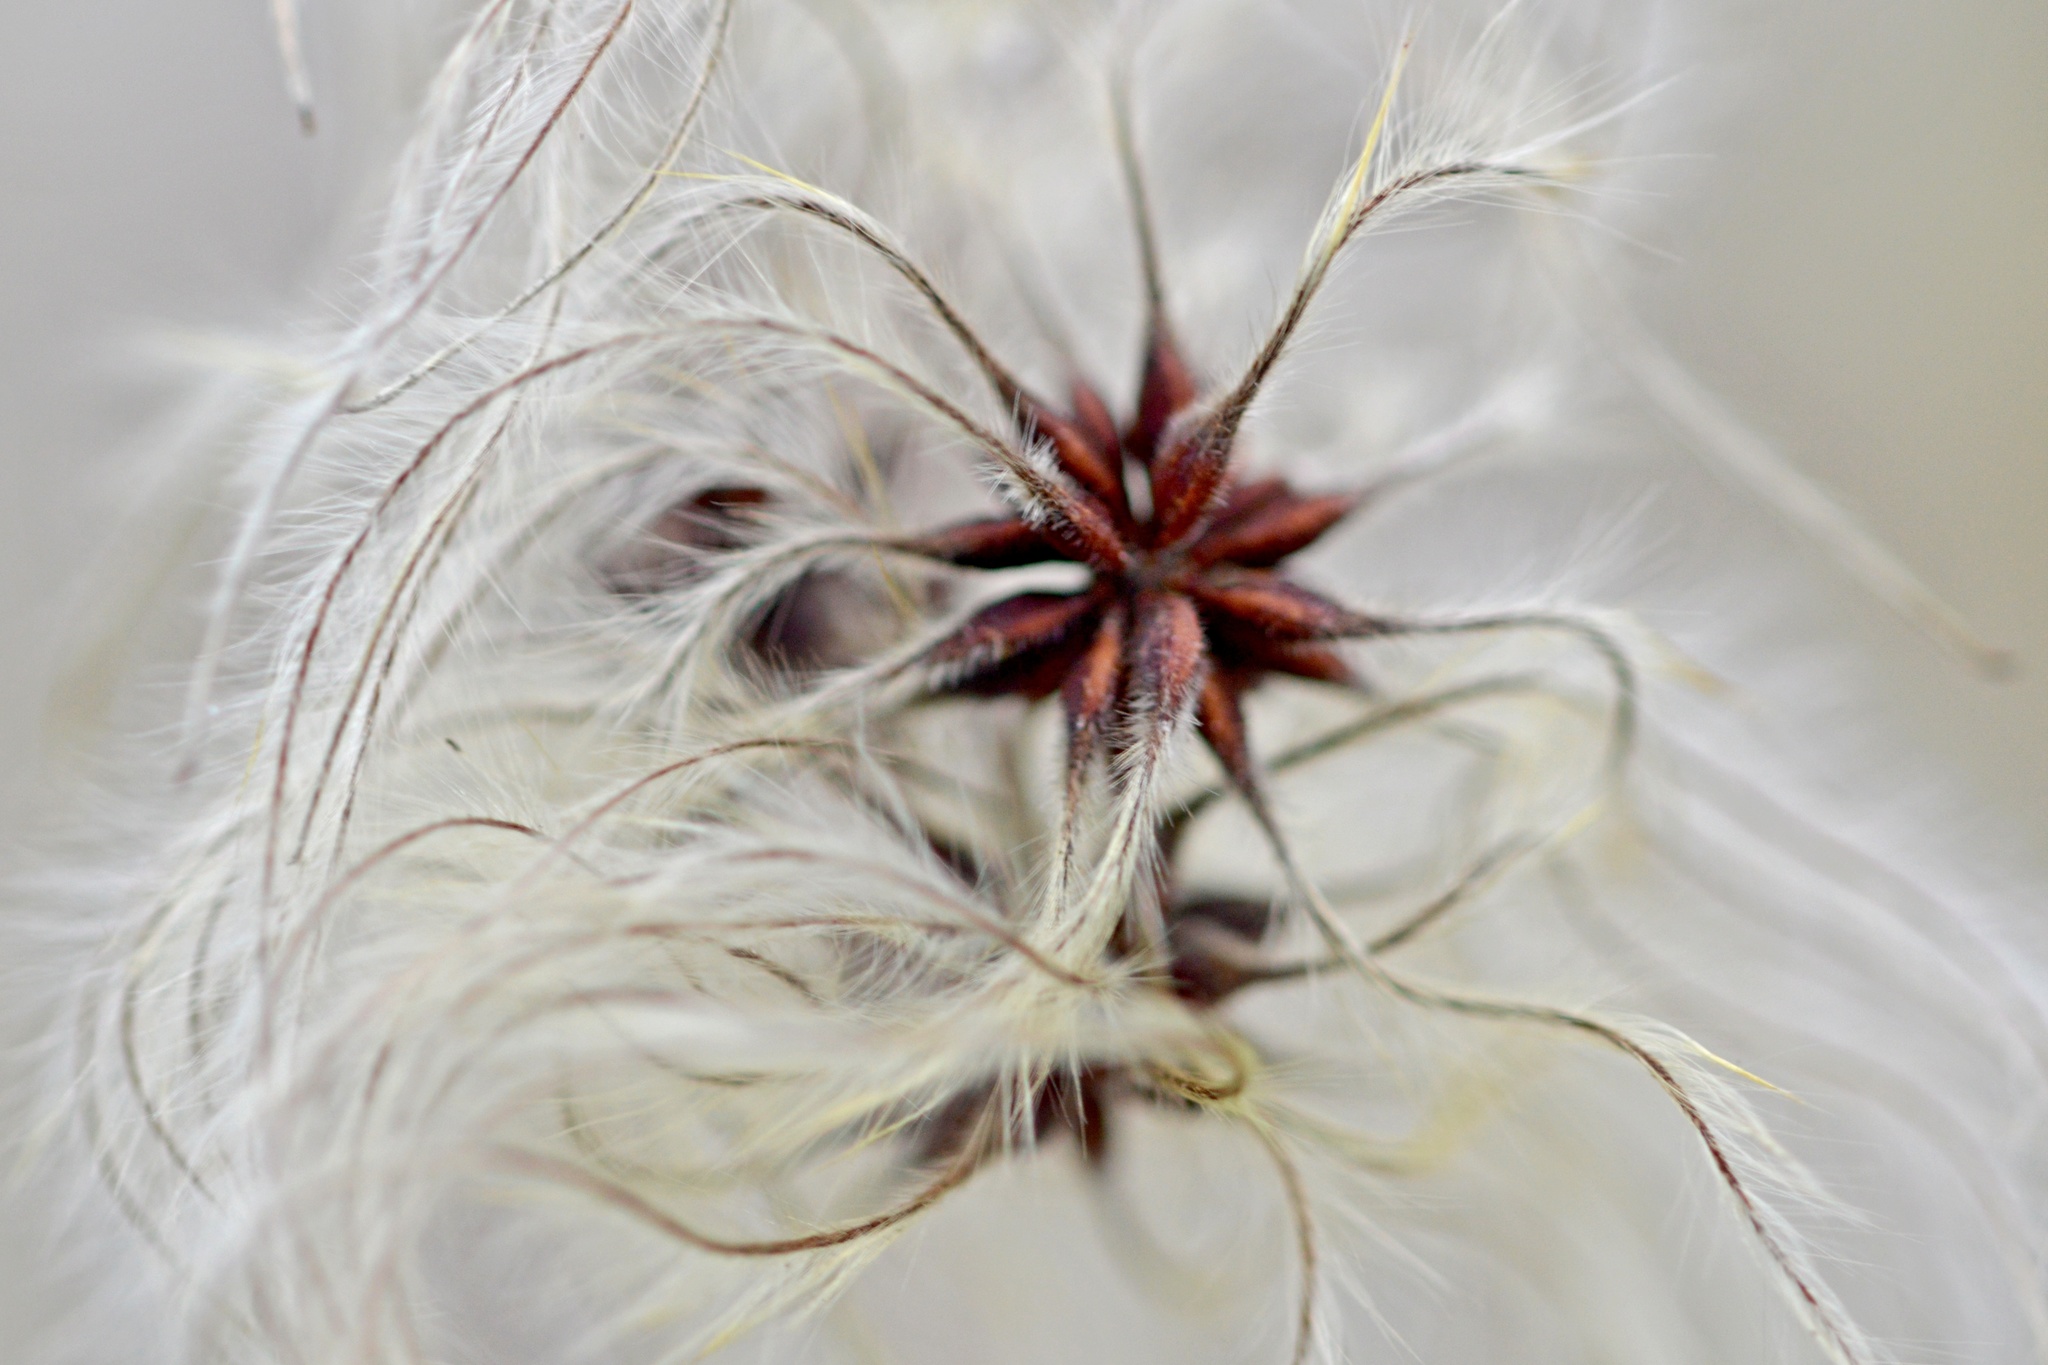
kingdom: Plantae
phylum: Tracheophyta
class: Magnoliopsida
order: Ranunculales
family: Ranunculaceae
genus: Clematis
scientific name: Clematis vitalba
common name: Evergreen clematis
